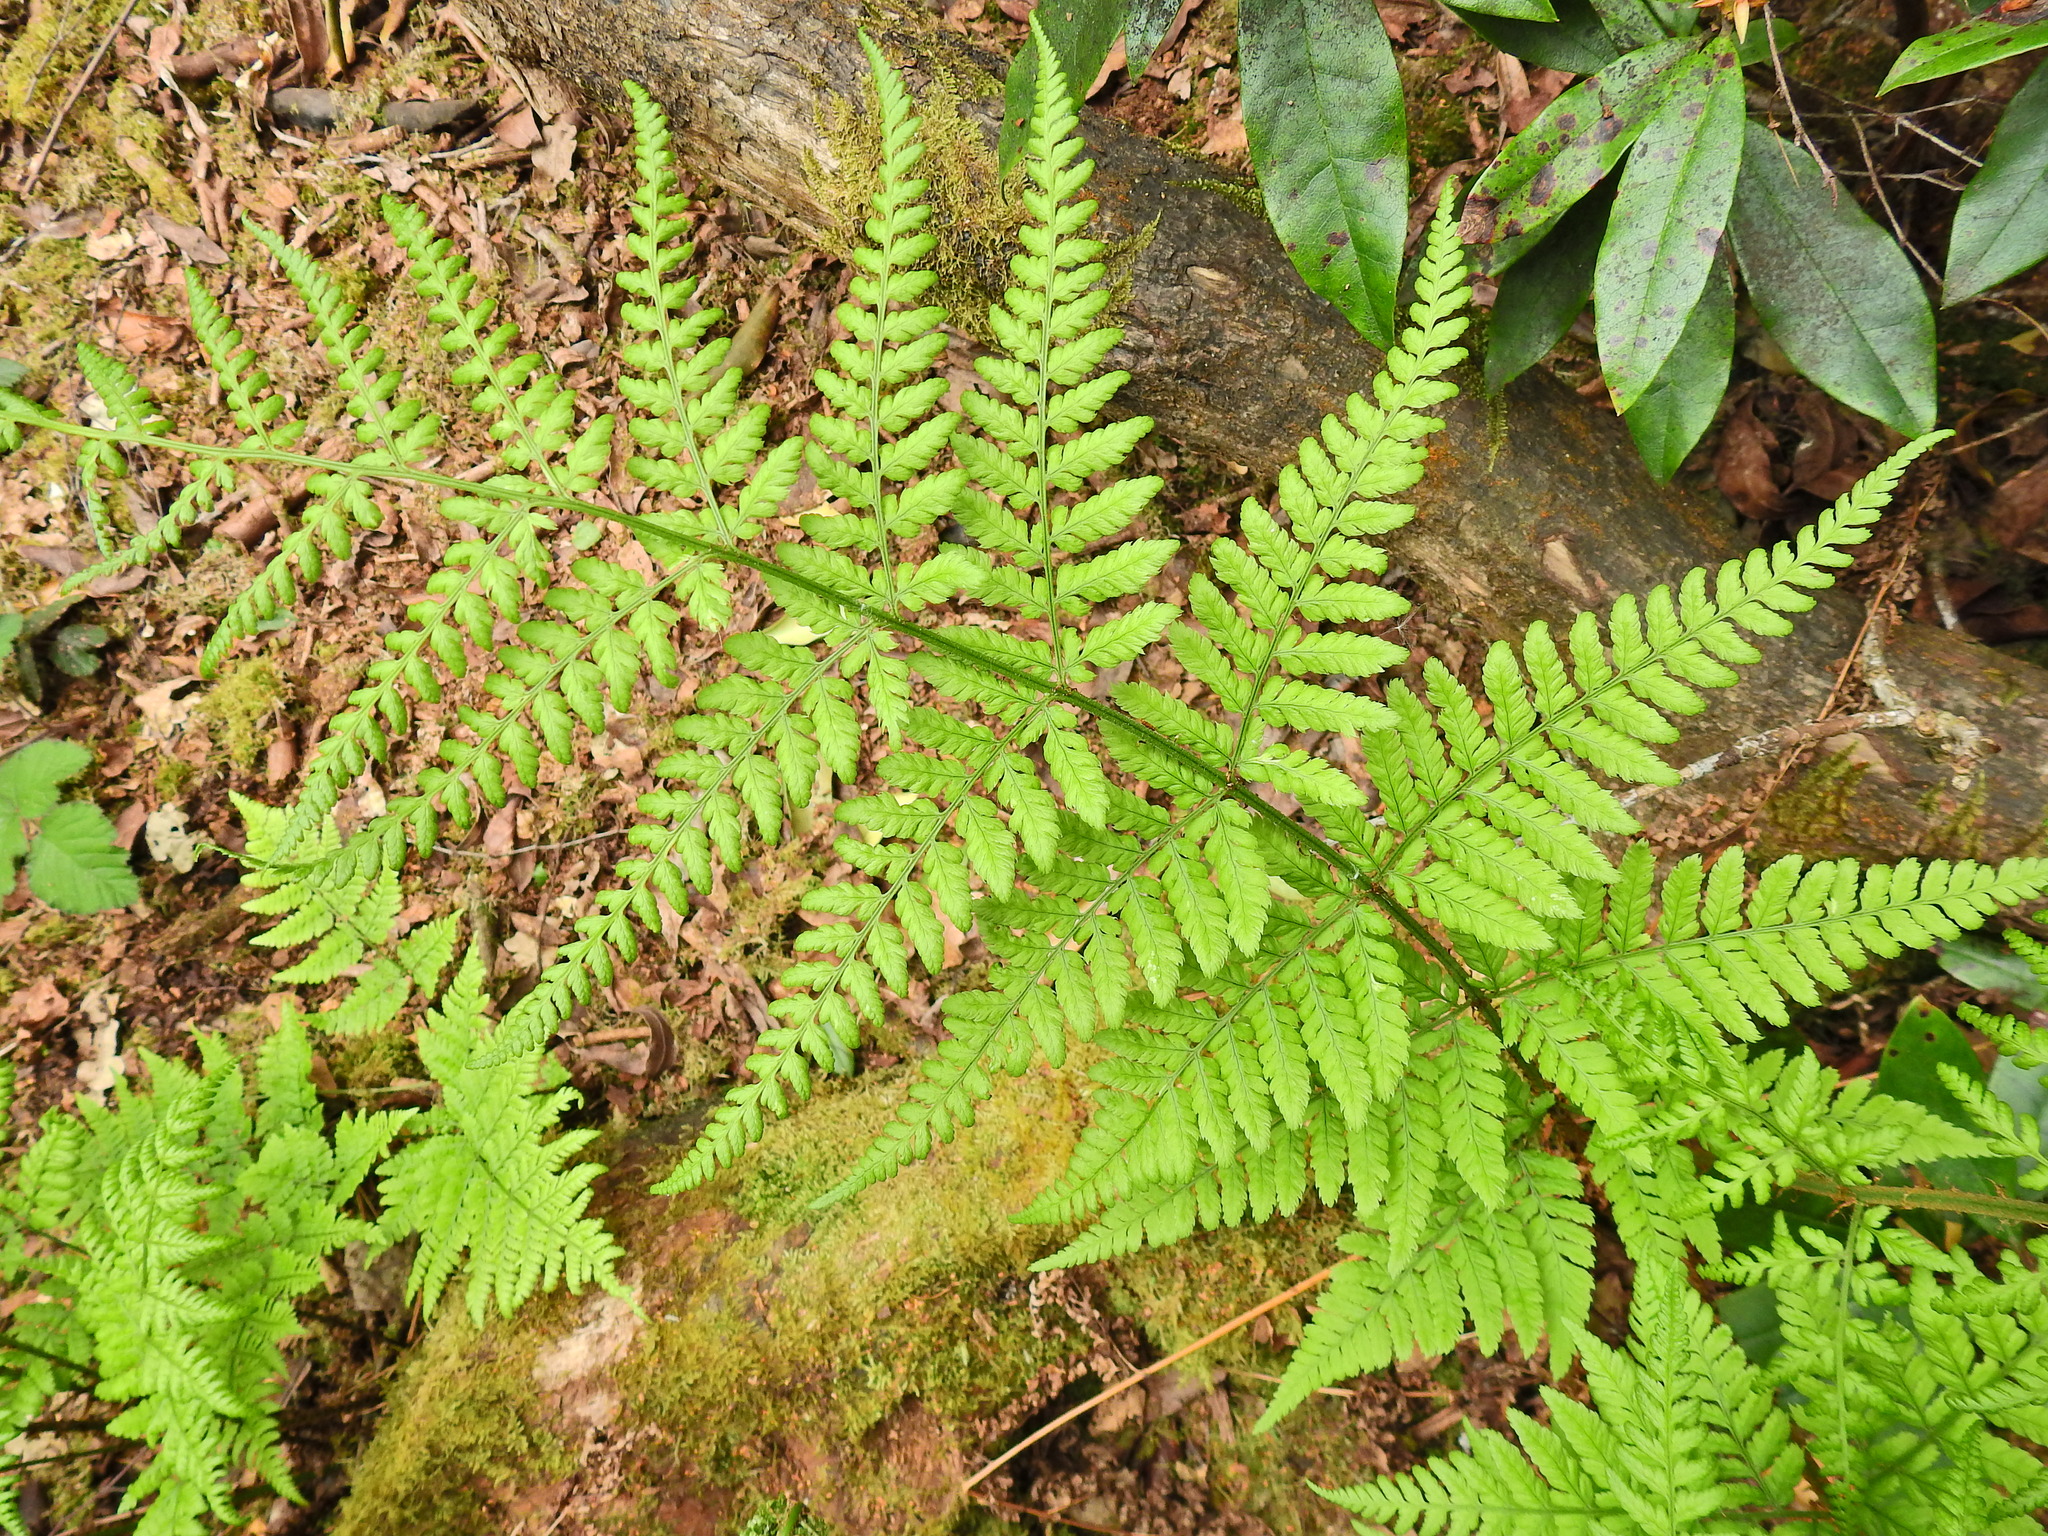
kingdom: Plantae
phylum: Tracheophyta
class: Polypodiopsida
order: Polypodiales
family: Dryopteridaceae
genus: Dryopteris
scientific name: Dryopteris dilatata
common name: Broad buckler-fern
